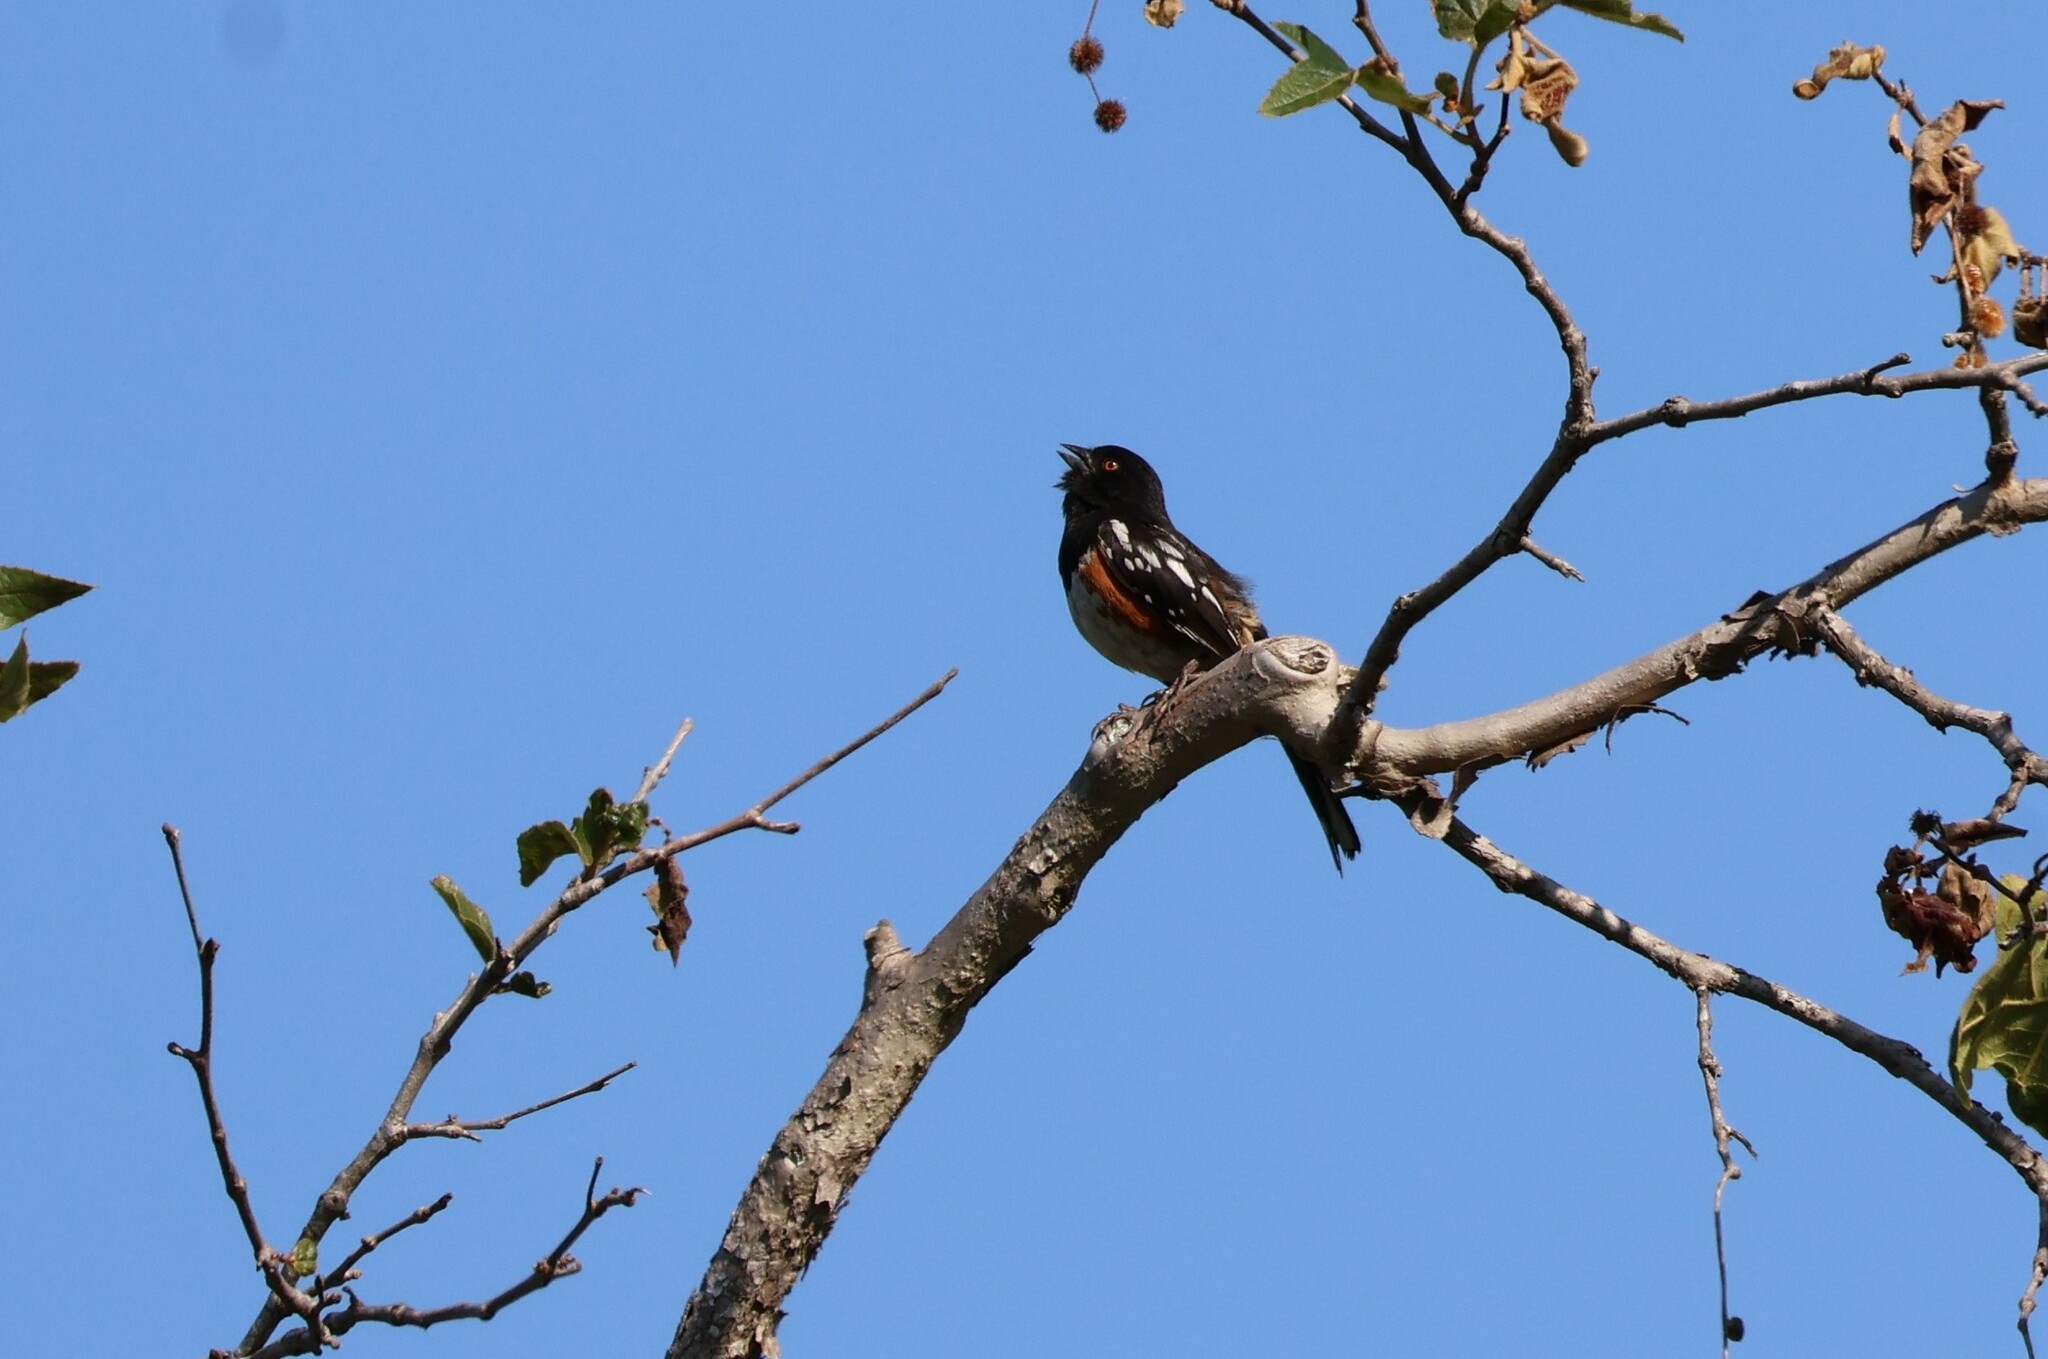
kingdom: Animalia
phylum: Chordata
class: Aves
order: Passeriformes
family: Passerellidae
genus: Pipilo
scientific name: Pipilo maculatus
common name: Spotted towhee
